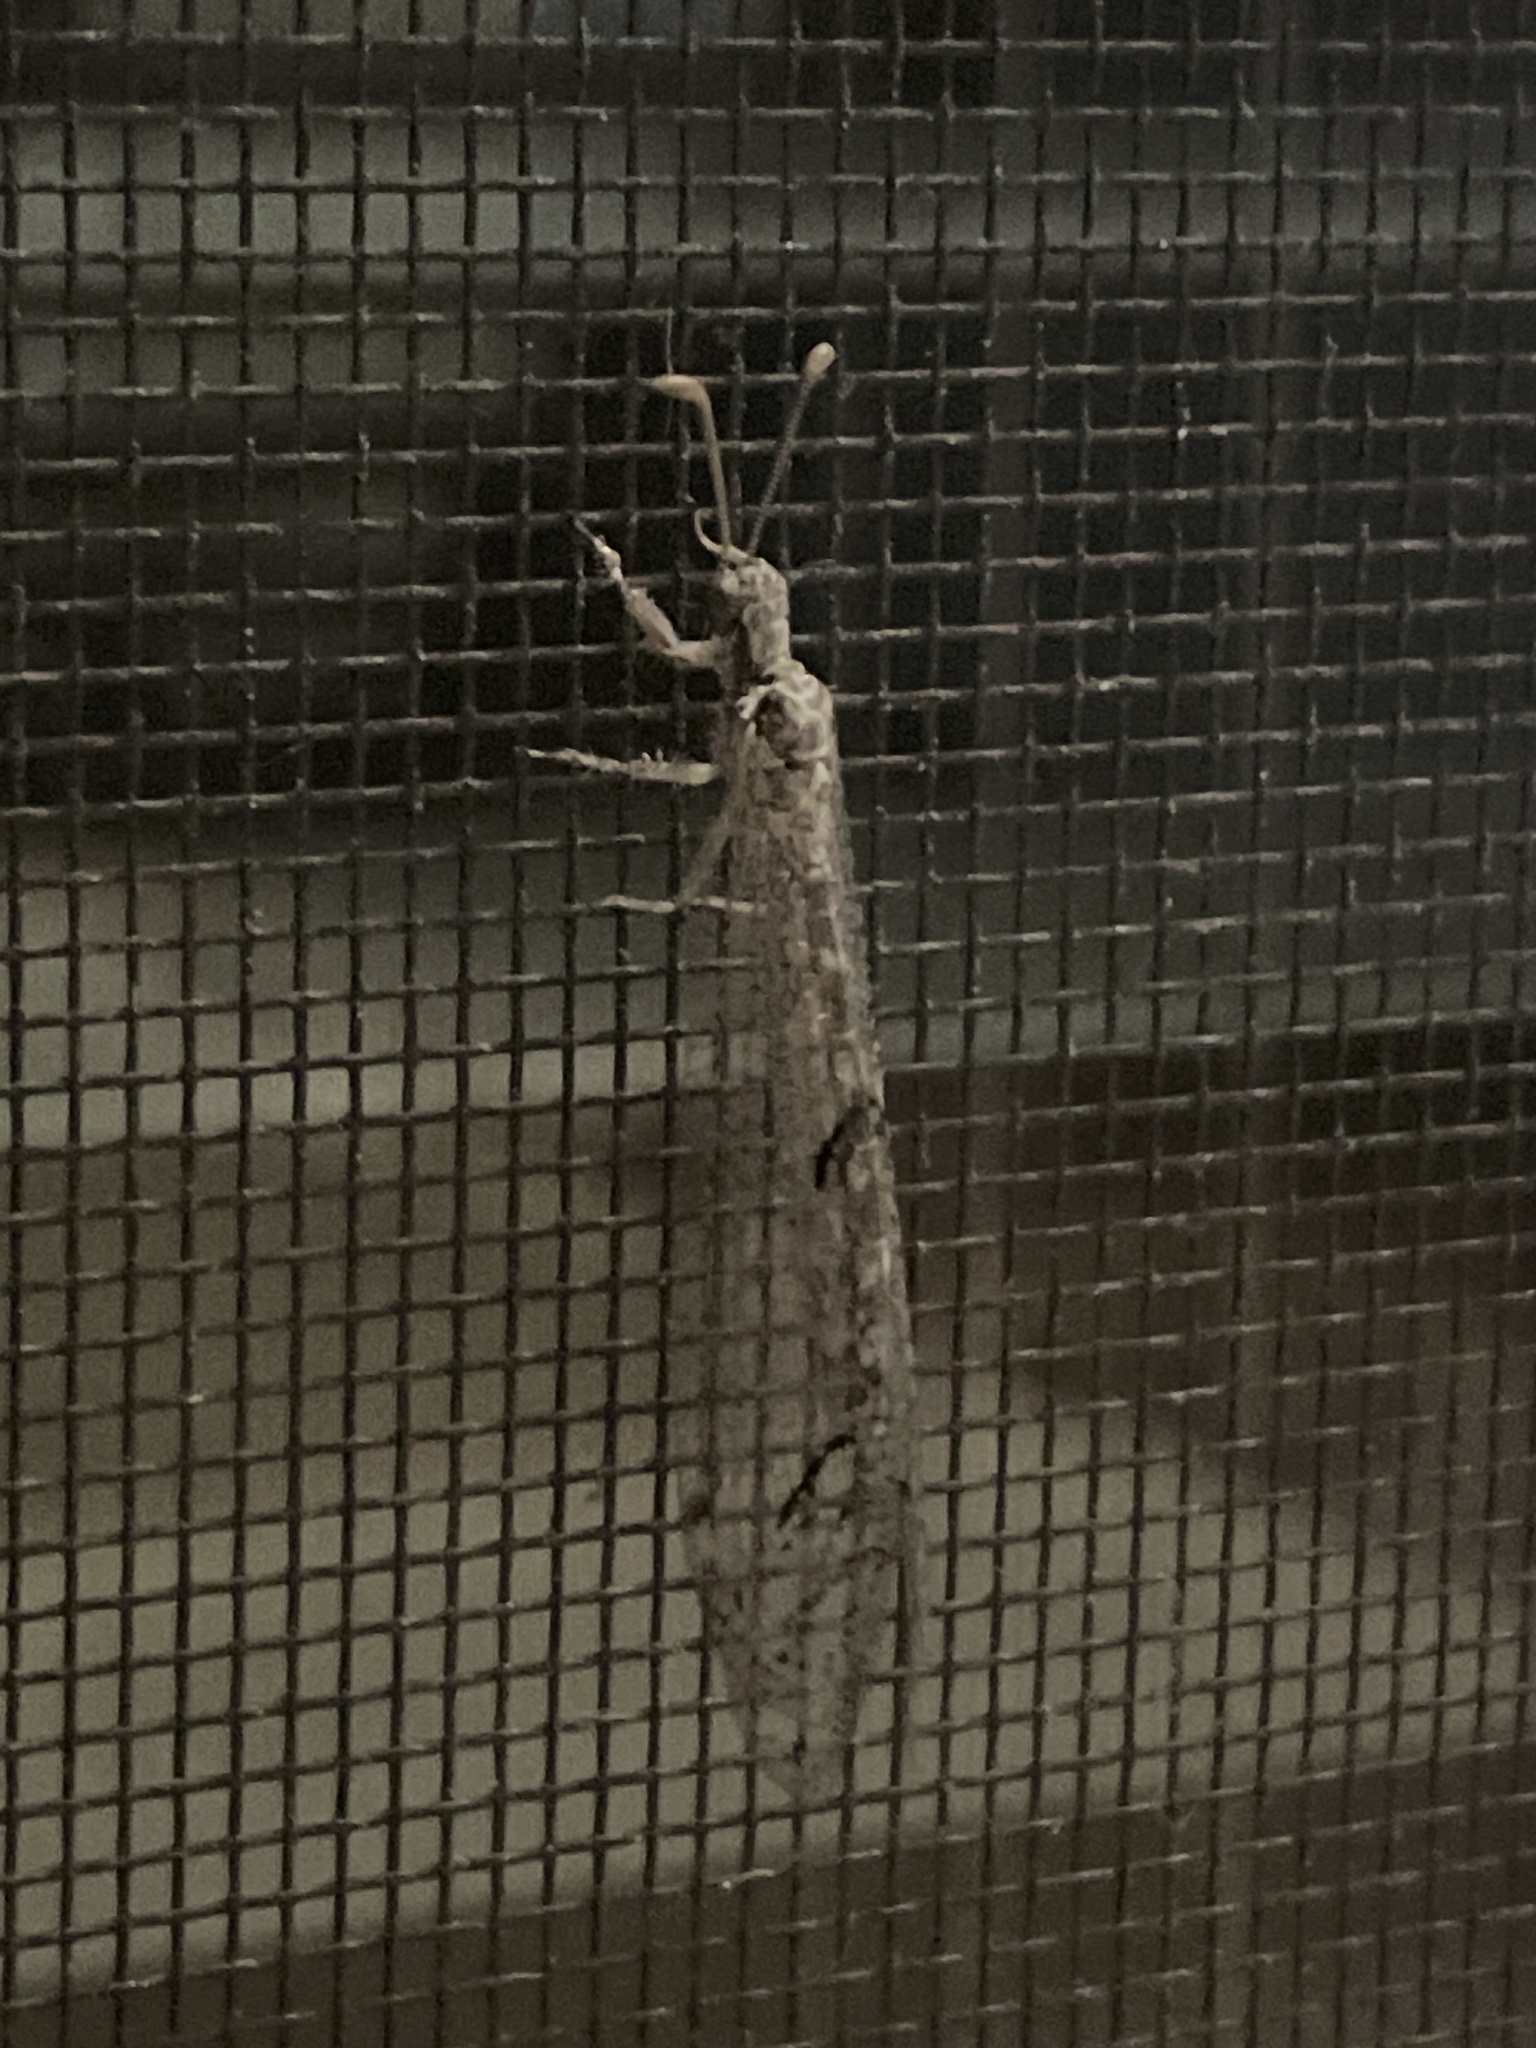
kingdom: Animalia
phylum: Arthropoda
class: Insecta
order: Neuroptera
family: Myrmeleontidae
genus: Euptilon
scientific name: Euptilon ornatum
